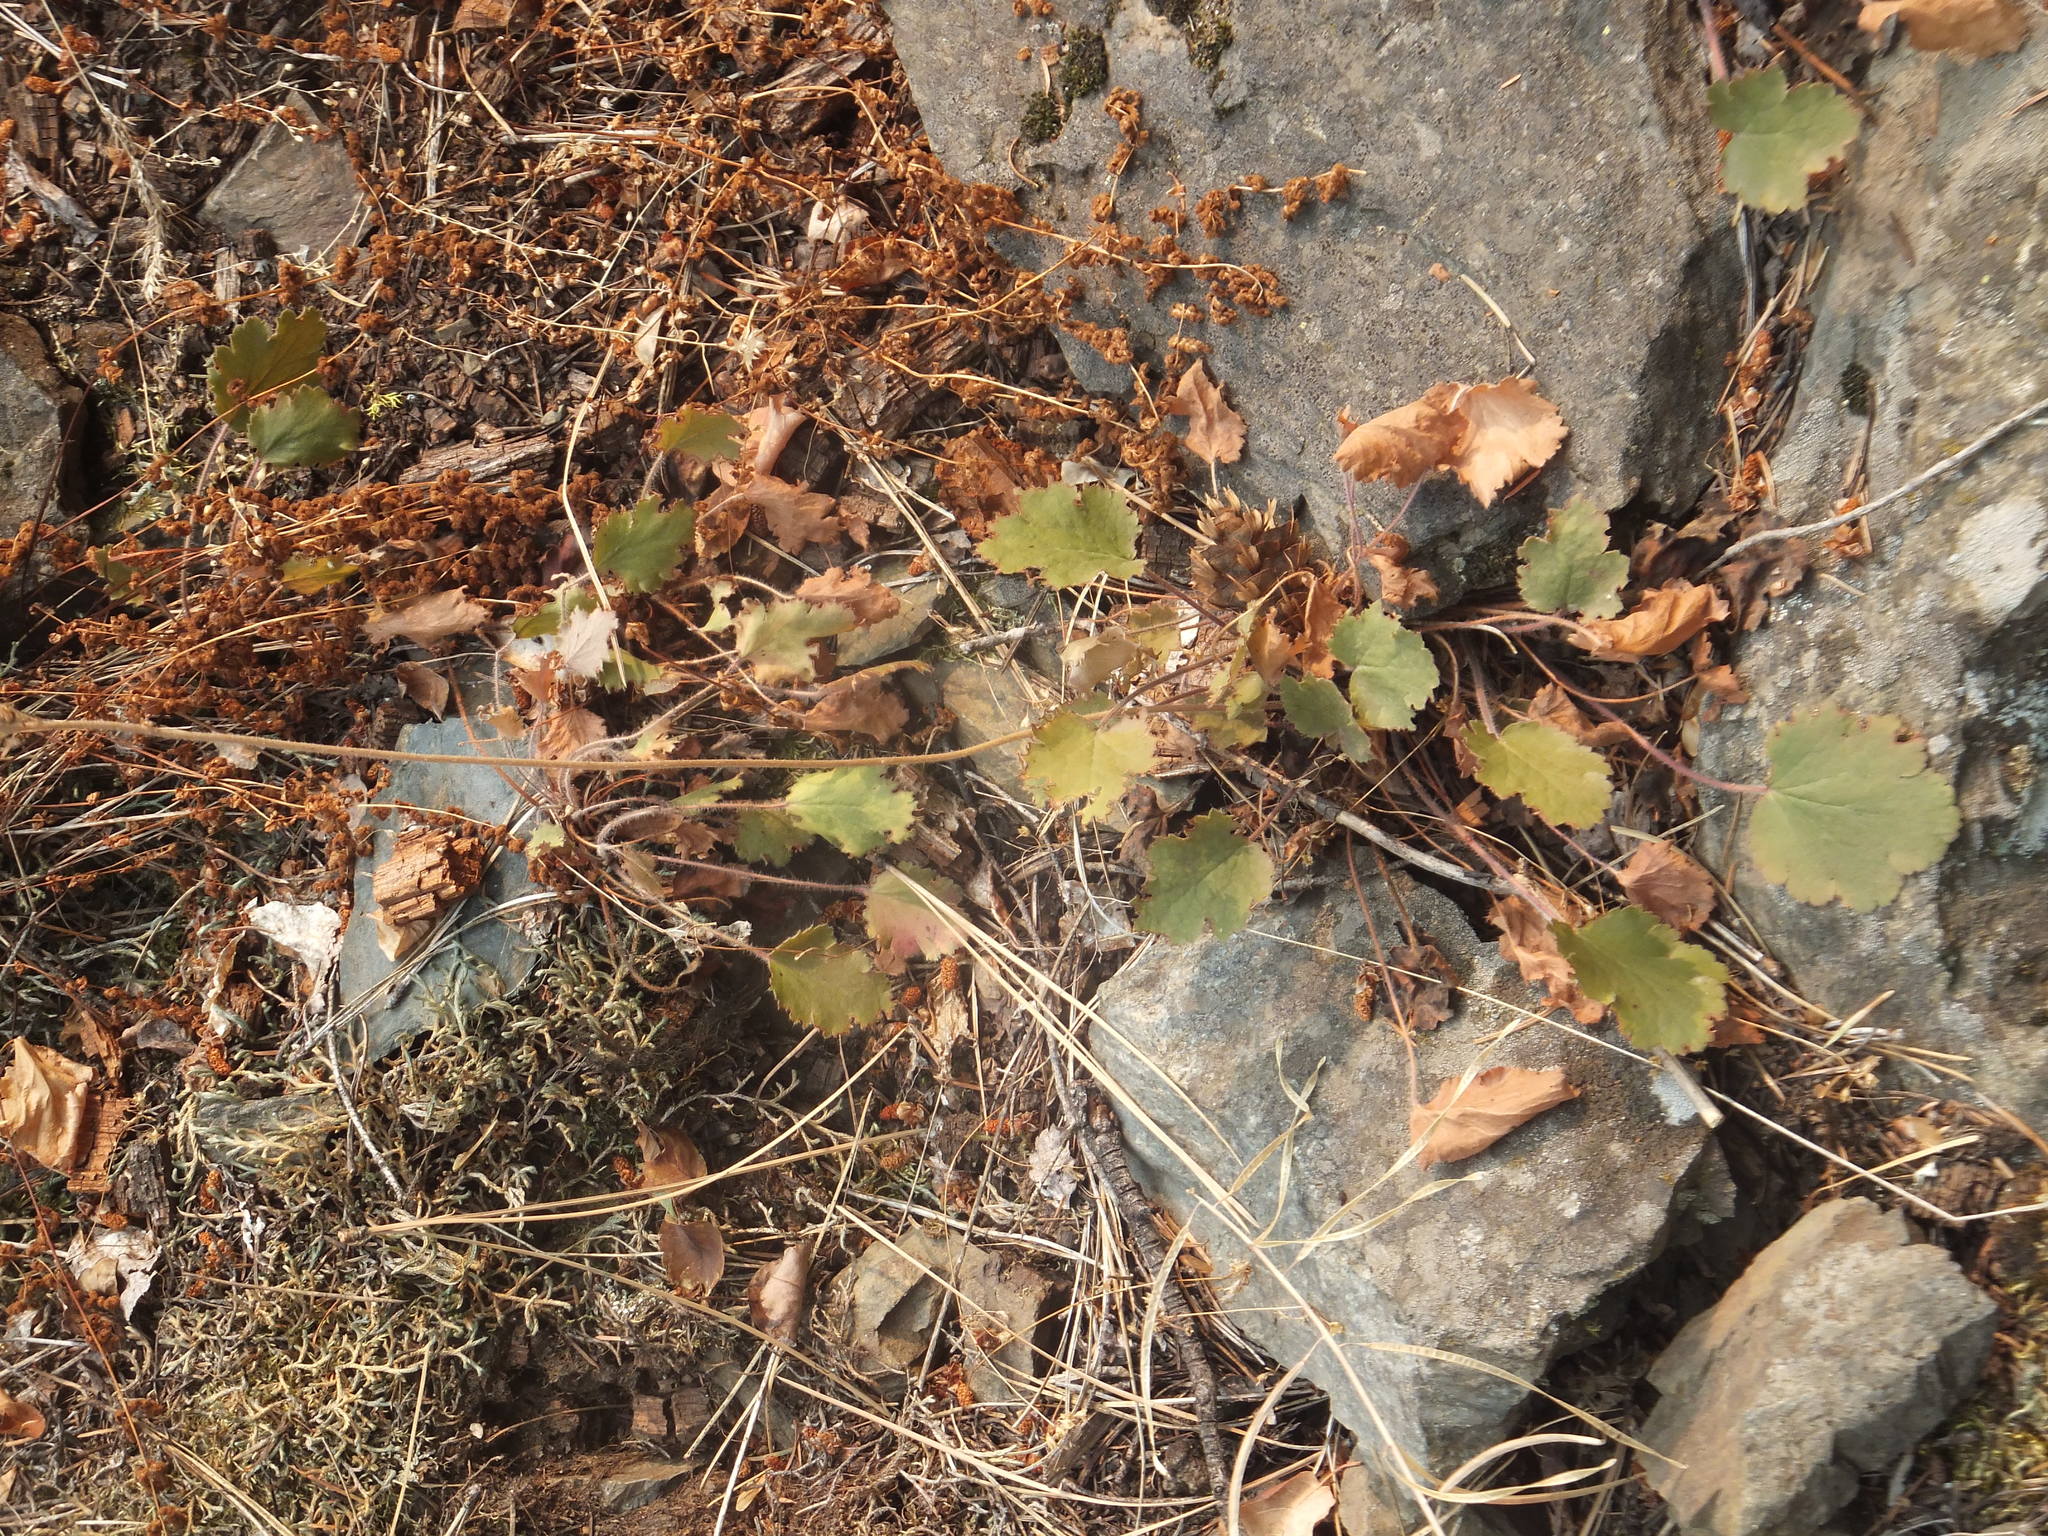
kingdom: Plantae
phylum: Tracheophyta
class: Magnoliopsida
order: Saxifragales
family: Saxifragaceae
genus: Heuchera
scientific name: Heuchera cylindrica
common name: Mat alumroot
